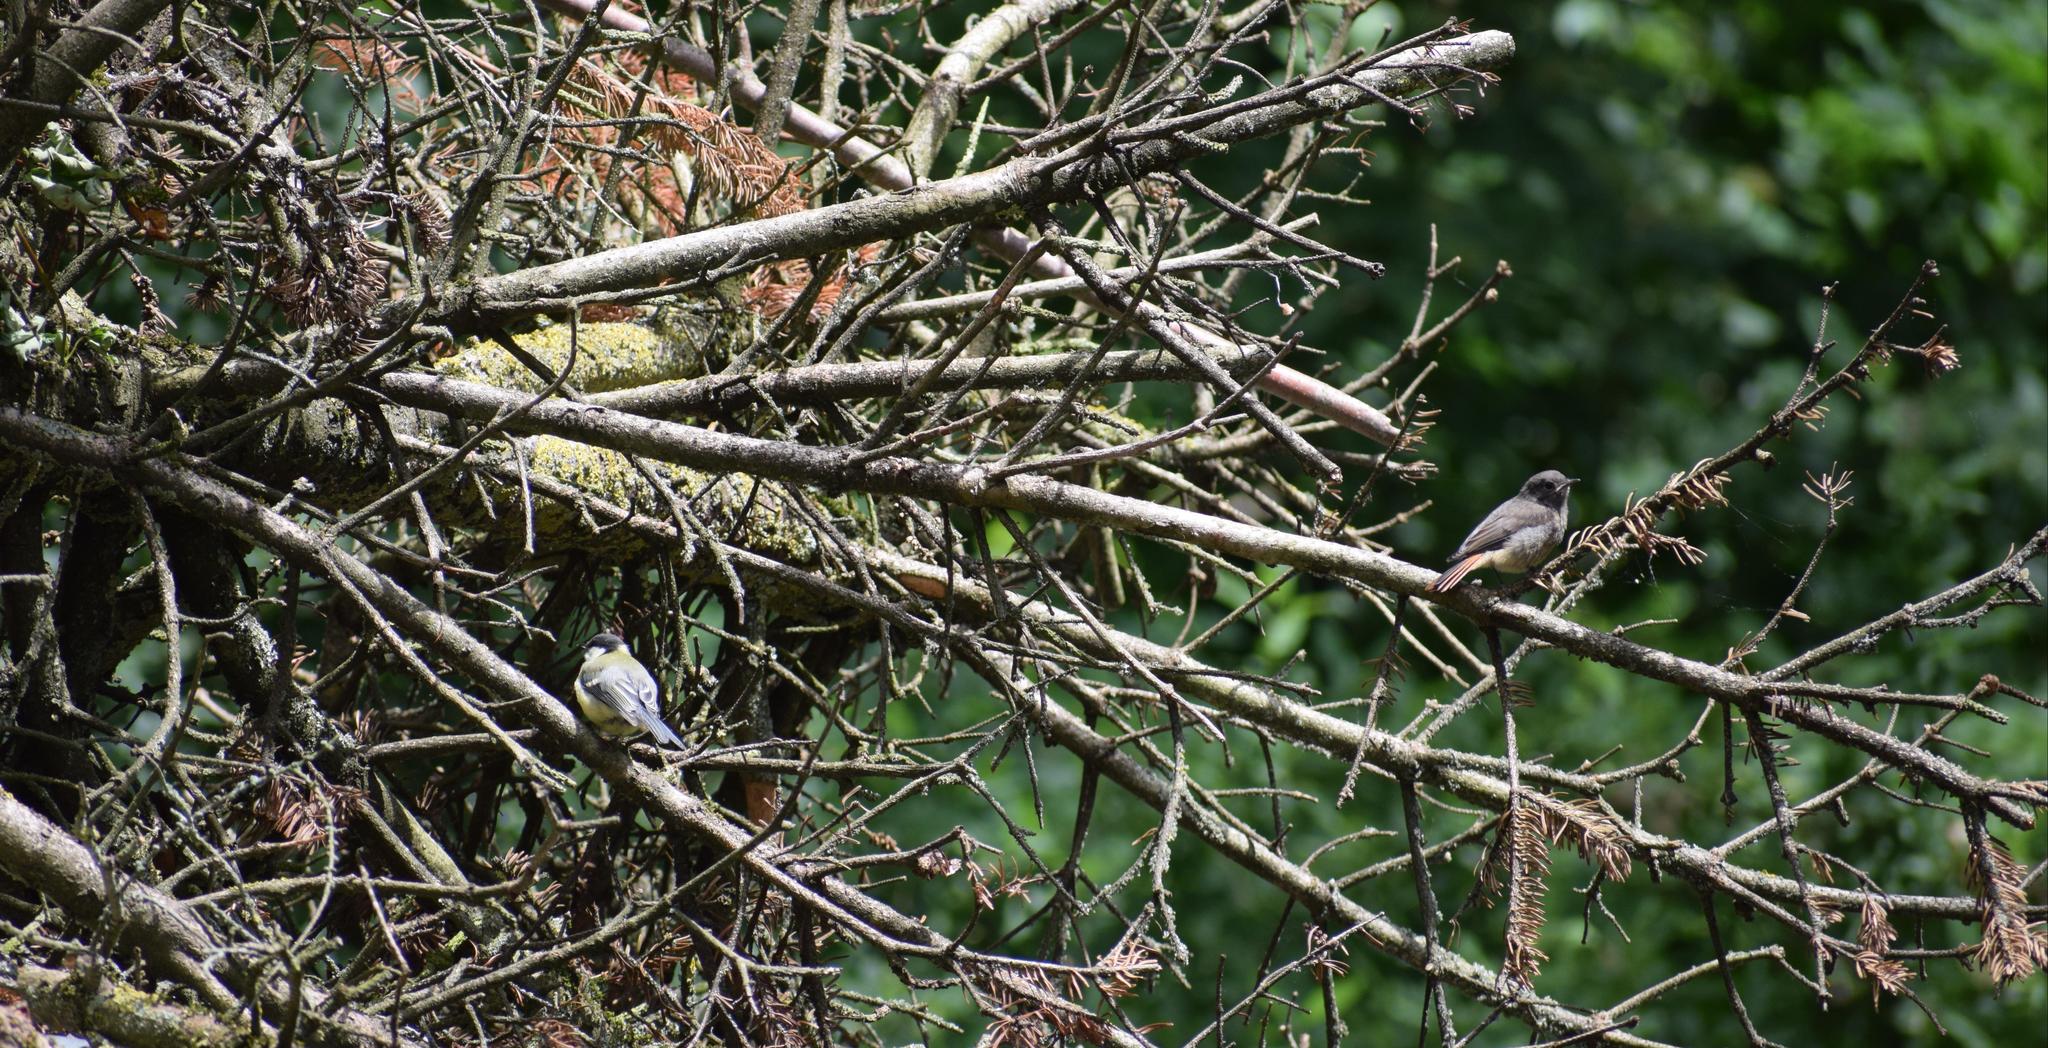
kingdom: Animalia
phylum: Chordata
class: Aves
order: Passeriformes
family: Muscicapidae
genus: Phoenicurus
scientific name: Phoenicurus ochruros
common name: Black redstart
